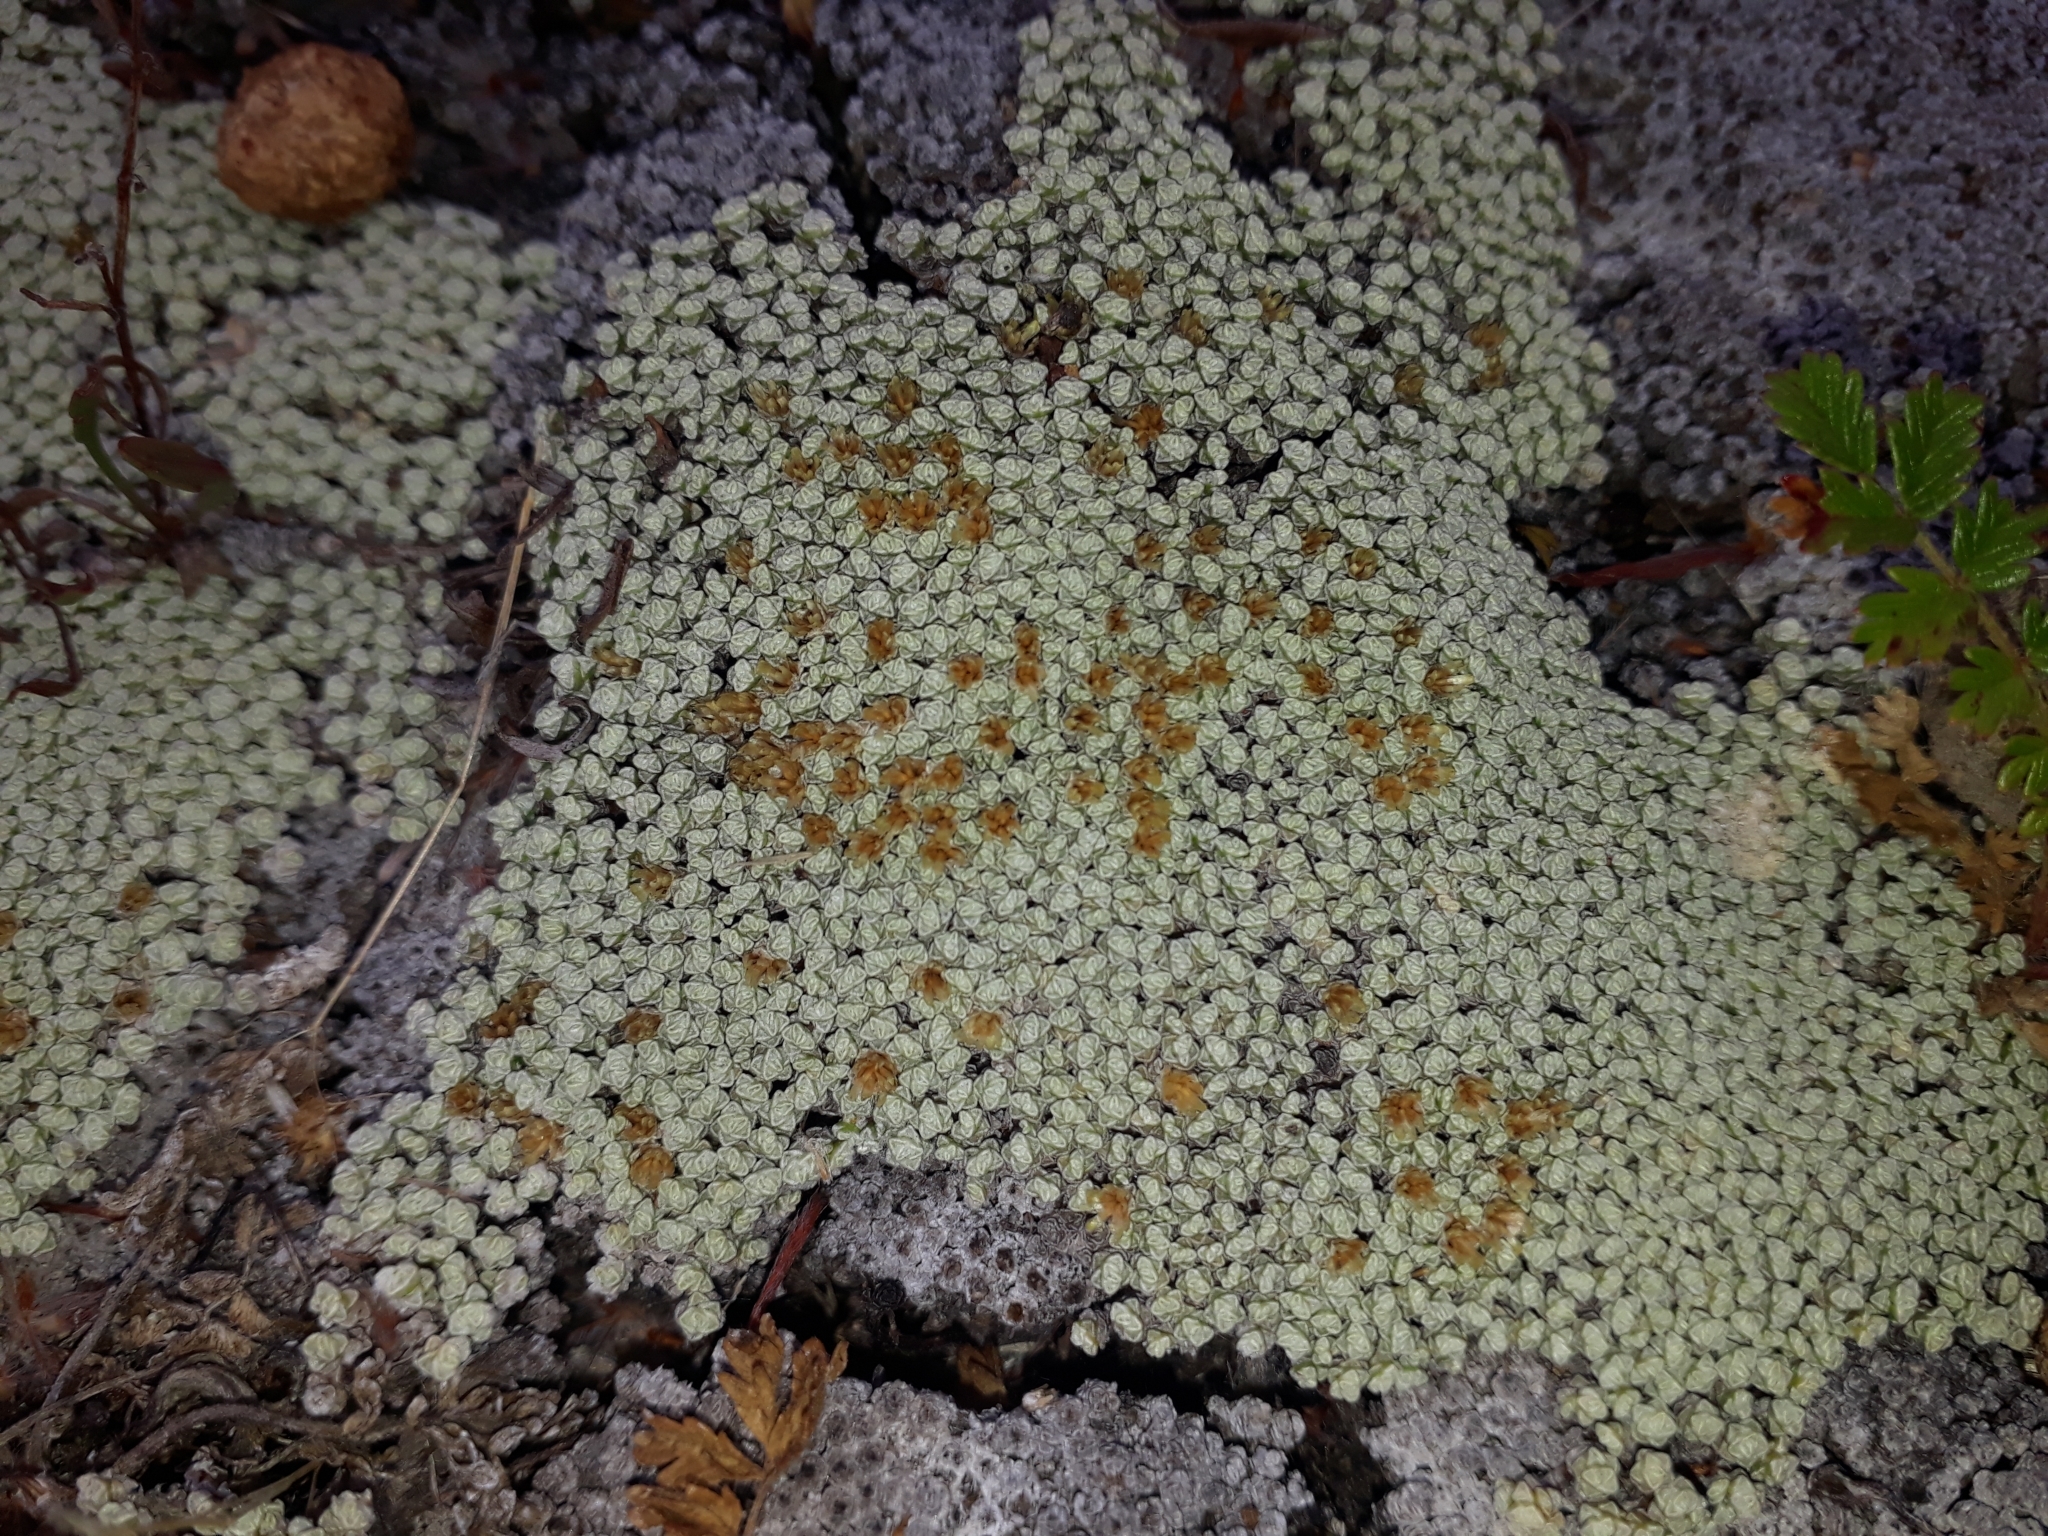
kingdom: Plantae
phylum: Tracheophyta
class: Magnoliopsida
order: Asterales
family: Asteraceae
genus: Raoulia
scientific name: Raoulia australis
